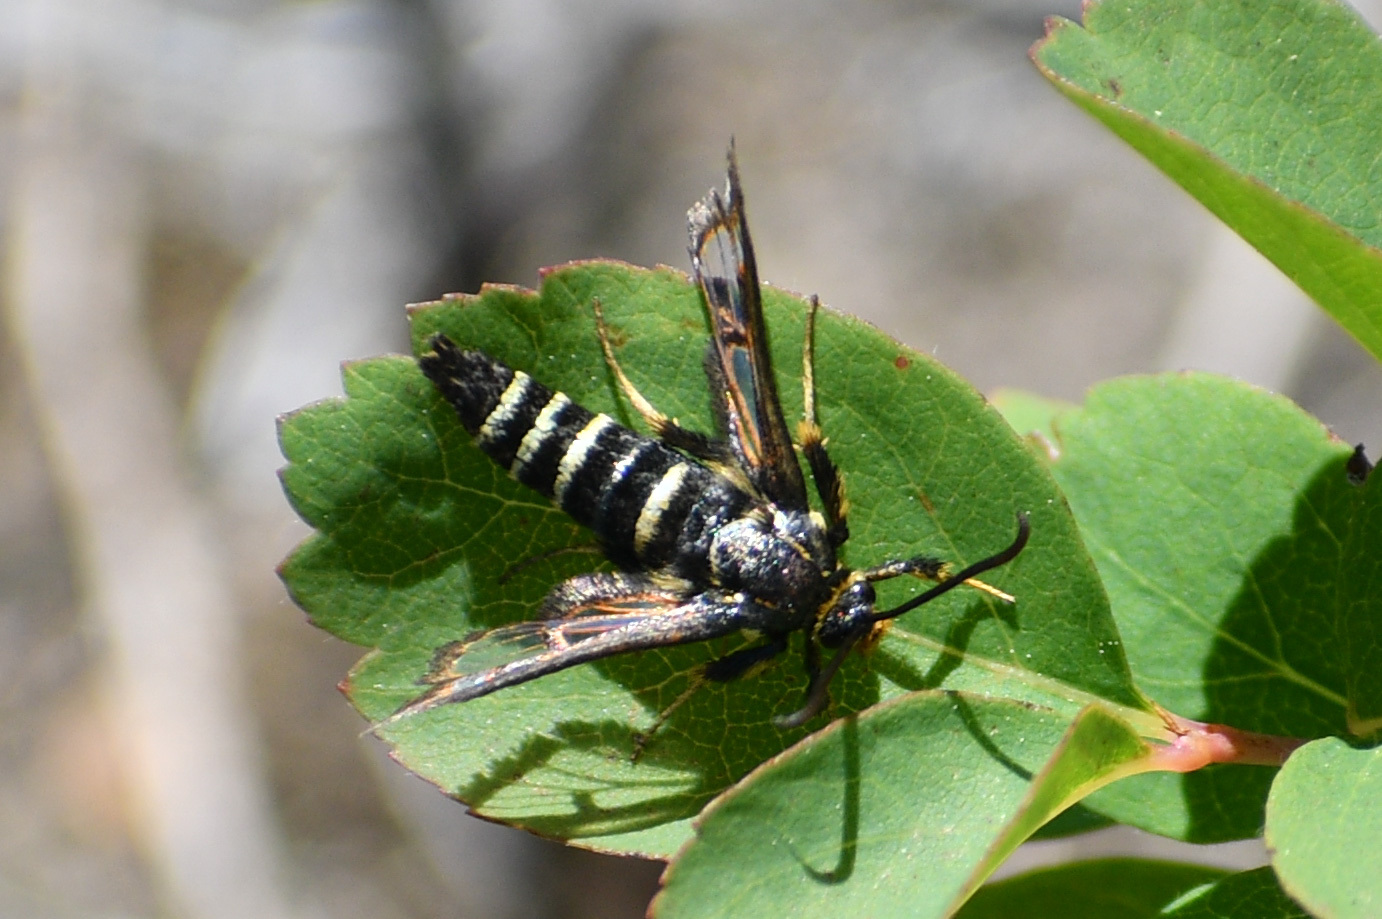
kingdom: Animalia
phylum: Arthropoda
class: Insecta
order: Lepidoptera
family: Sesiidae
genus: Albuna
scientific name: Albuna pyramidalis
